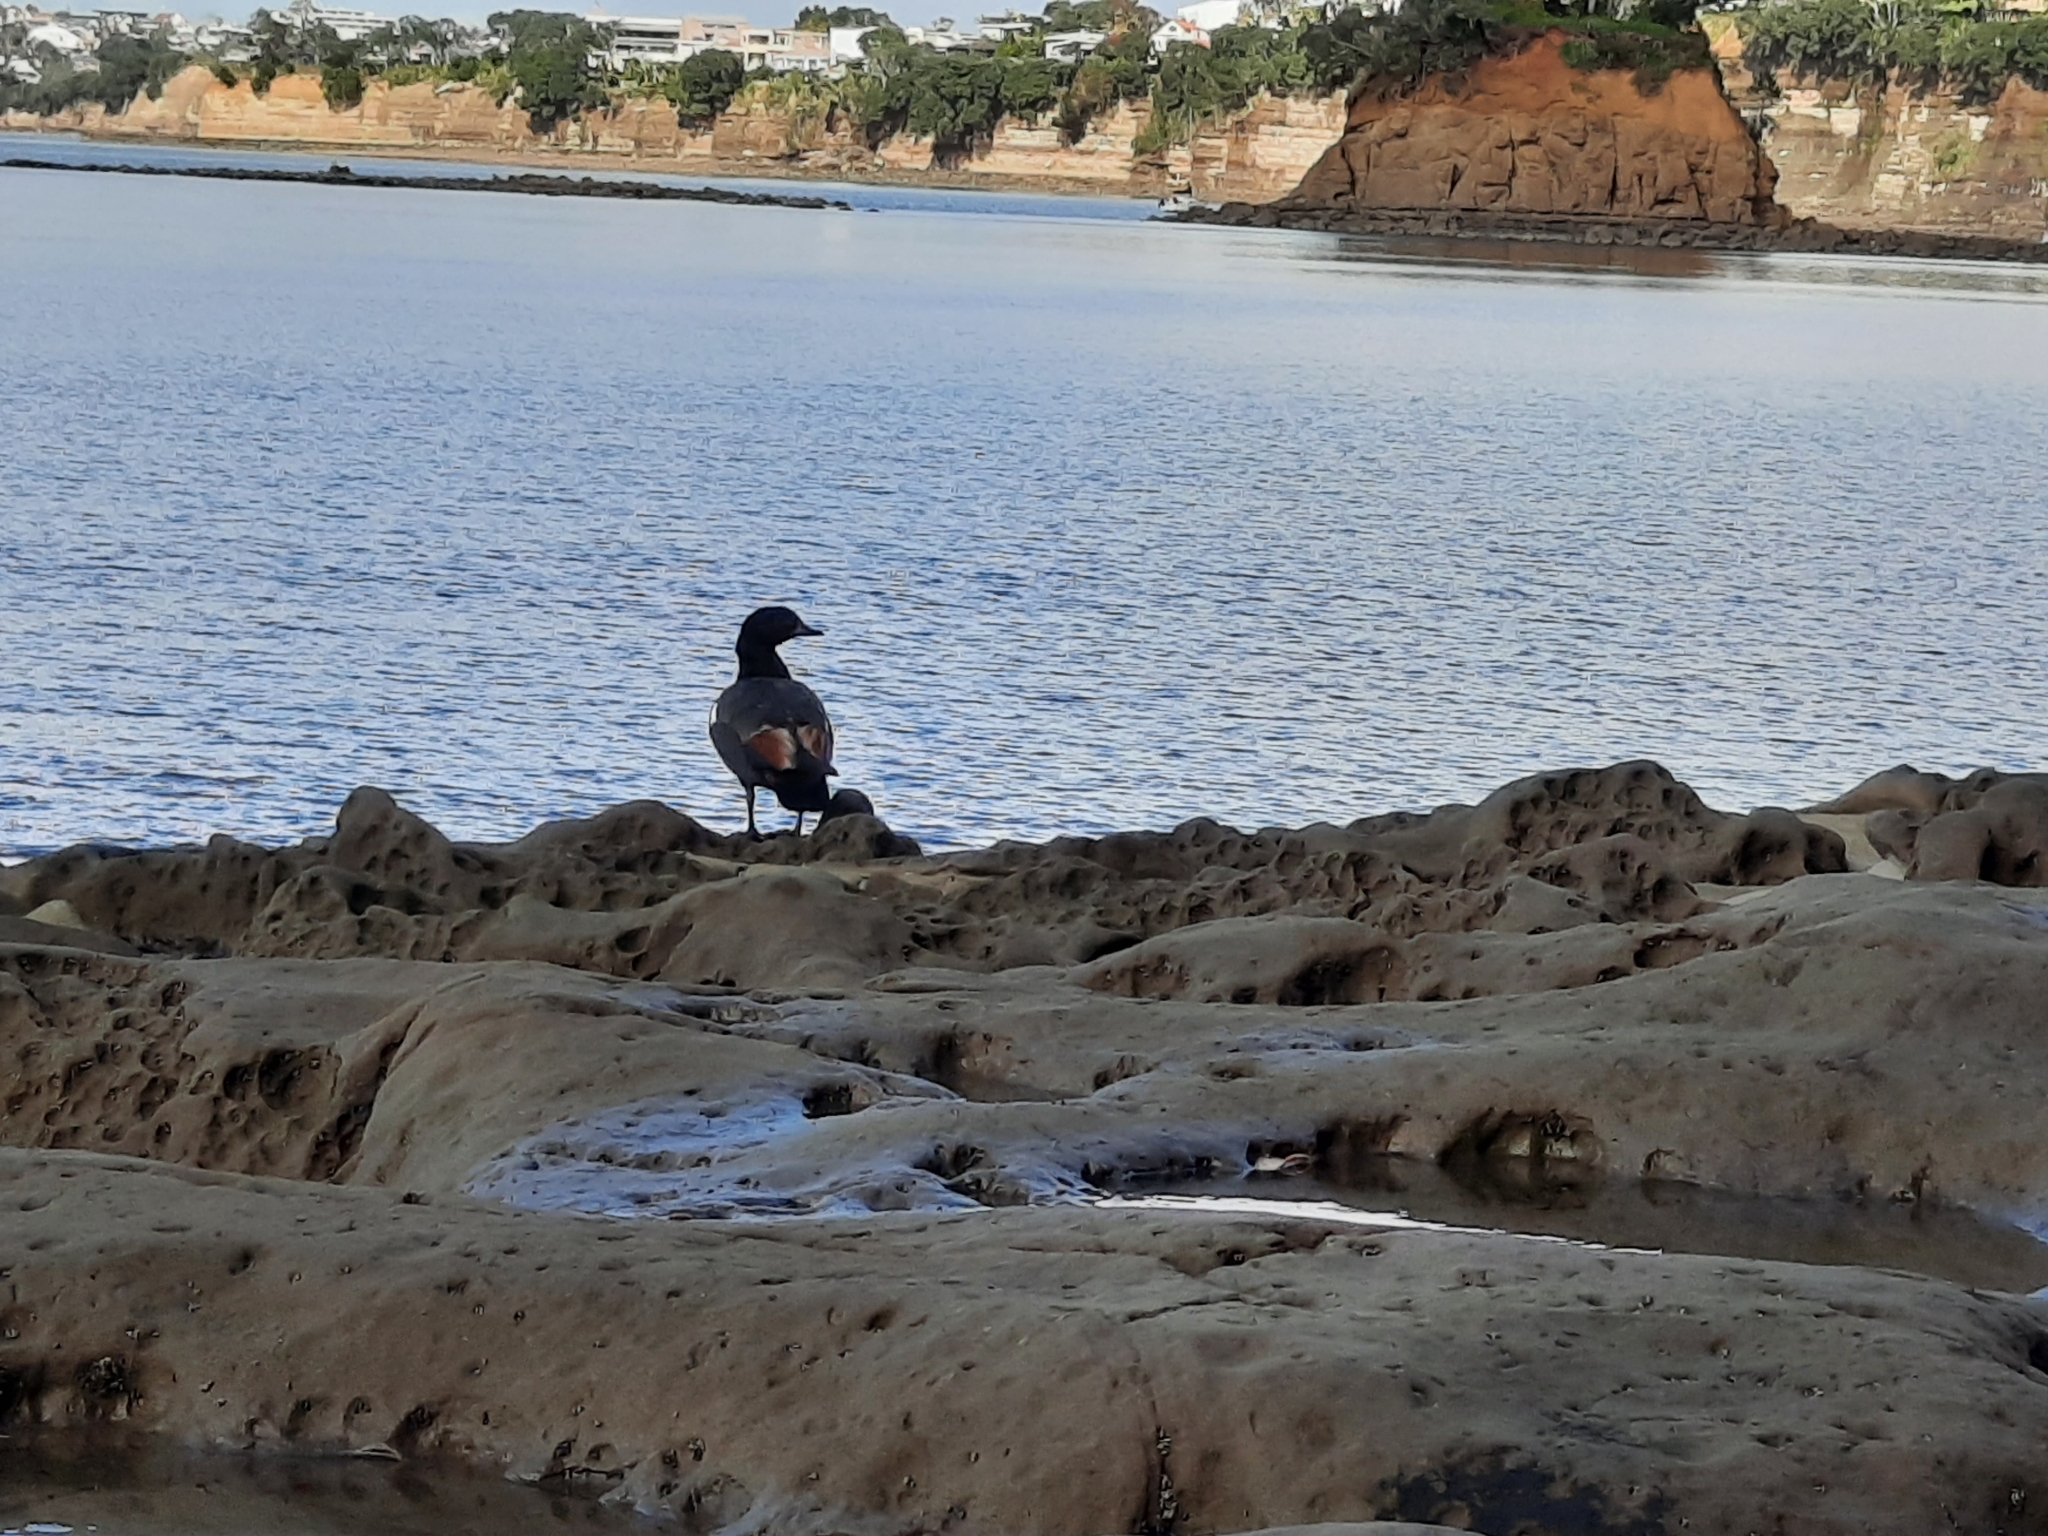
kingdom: Animalia
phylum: Chordata
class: Aves
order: Anseriformes
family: Anatidae
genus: Tadorna
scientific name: Tadorna variegata
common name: Paradise shelduck
